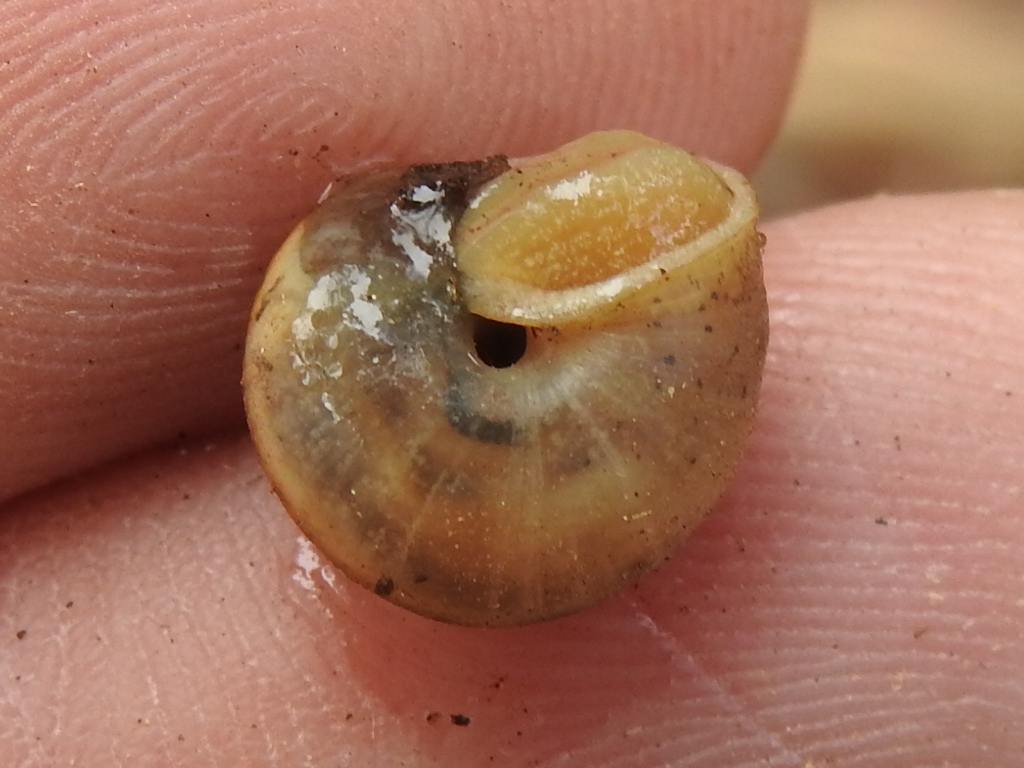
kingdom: Animalia
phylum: Mollusca
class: Gastropoda
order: Stylommatophora
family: Camaenidae
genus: Bradybaena
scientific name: Bradybaena similaris
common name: Asian trampsnail
